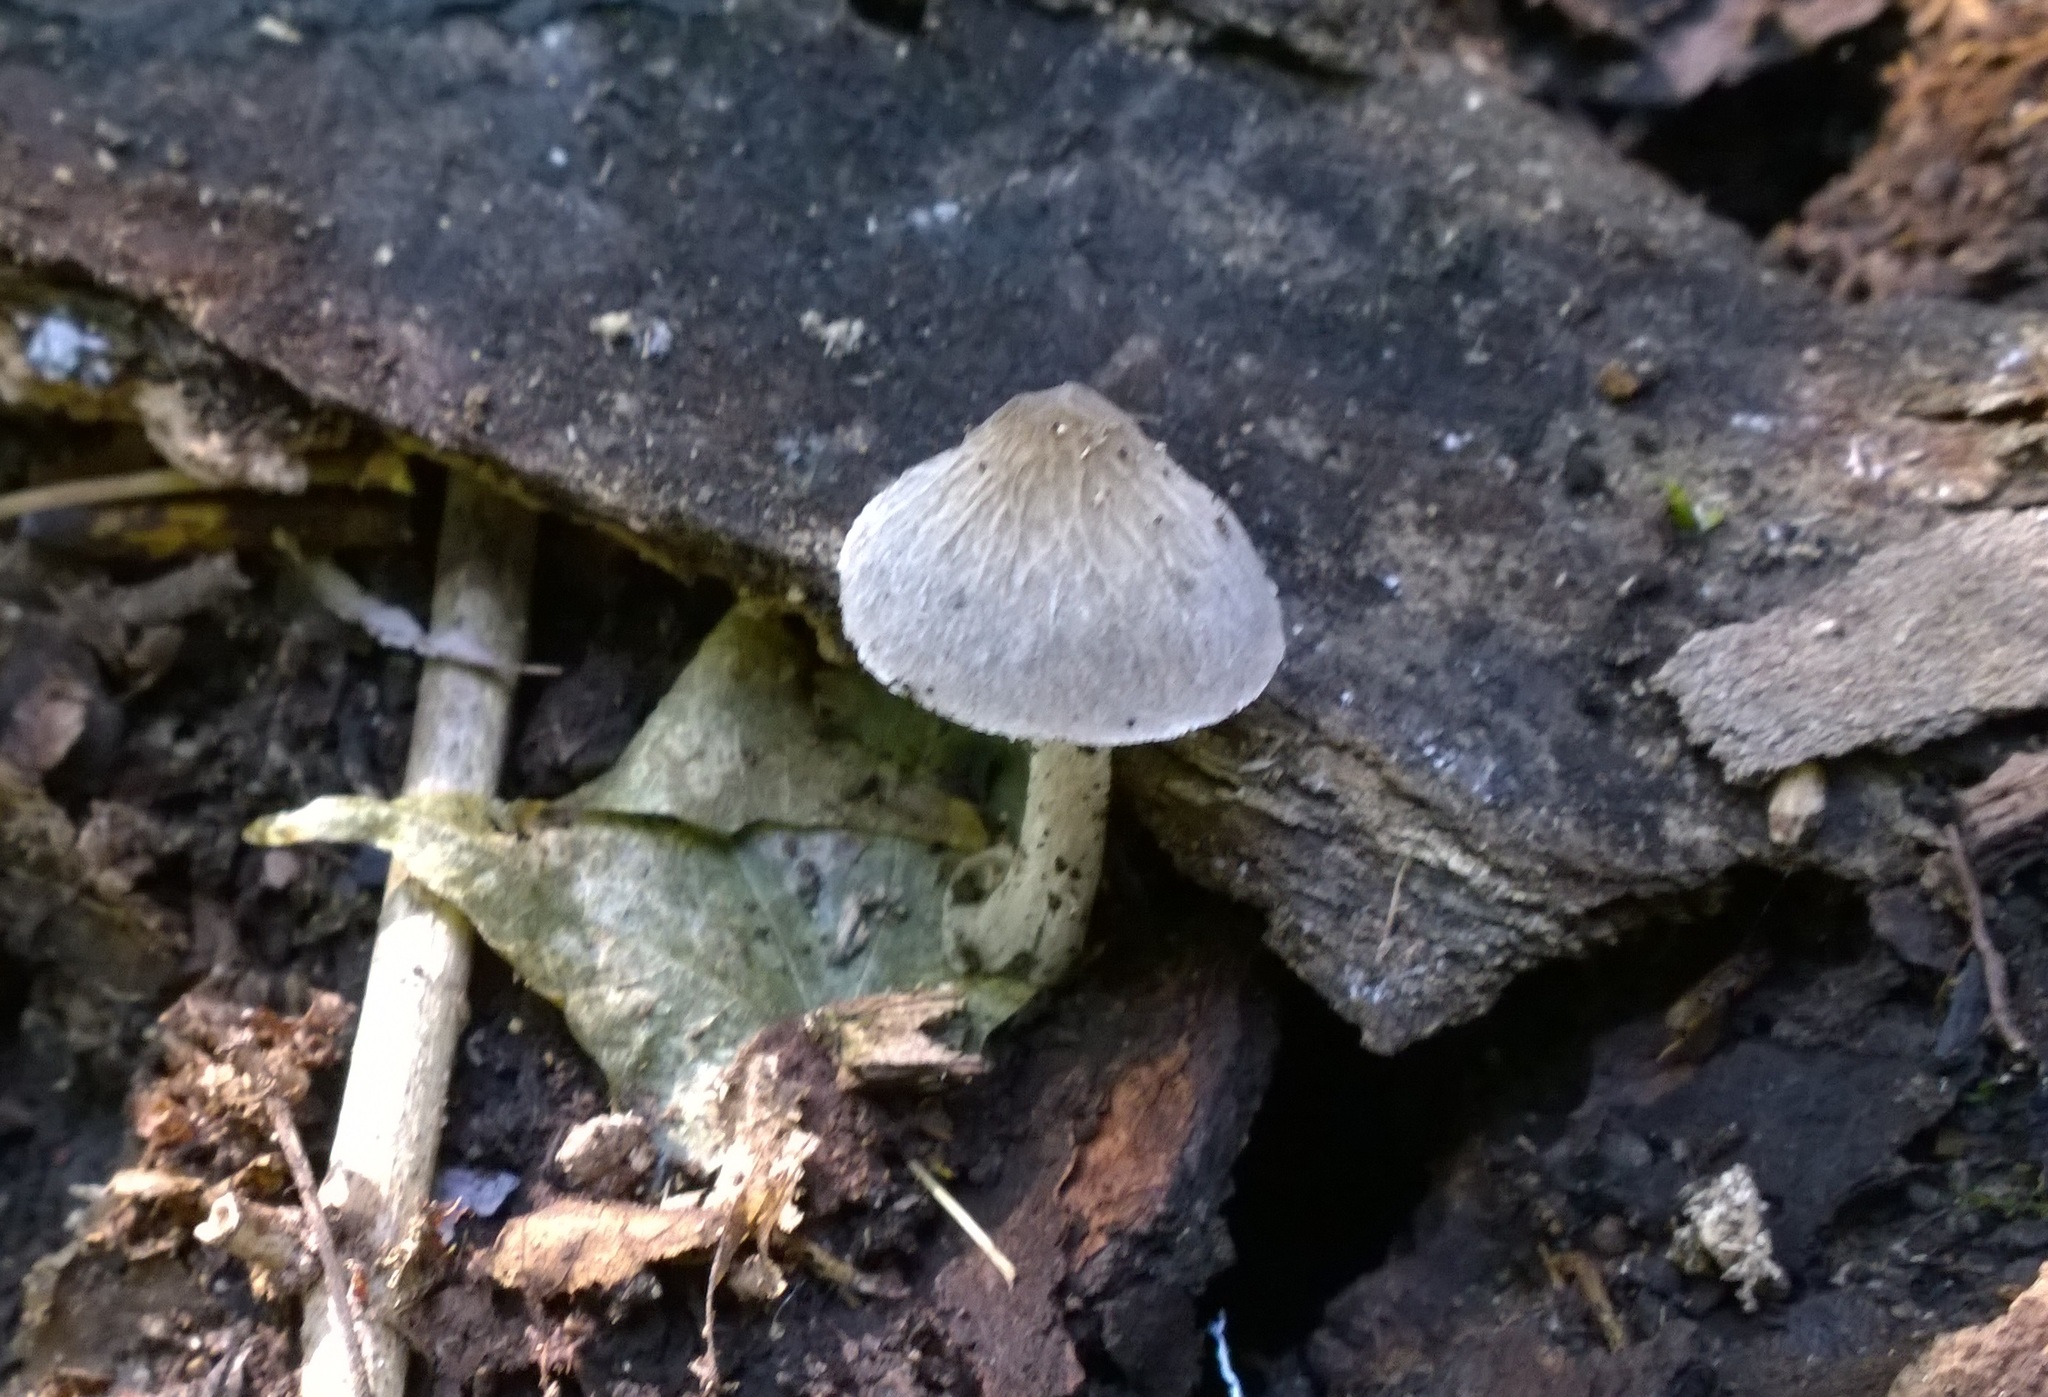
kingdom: Fungi
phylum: Basidiomycota
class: Agaricomycetes
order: Agaricales
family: Pluteaceae
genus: Pluteus
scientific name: Pluteus thomsonii
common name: Veined shield
